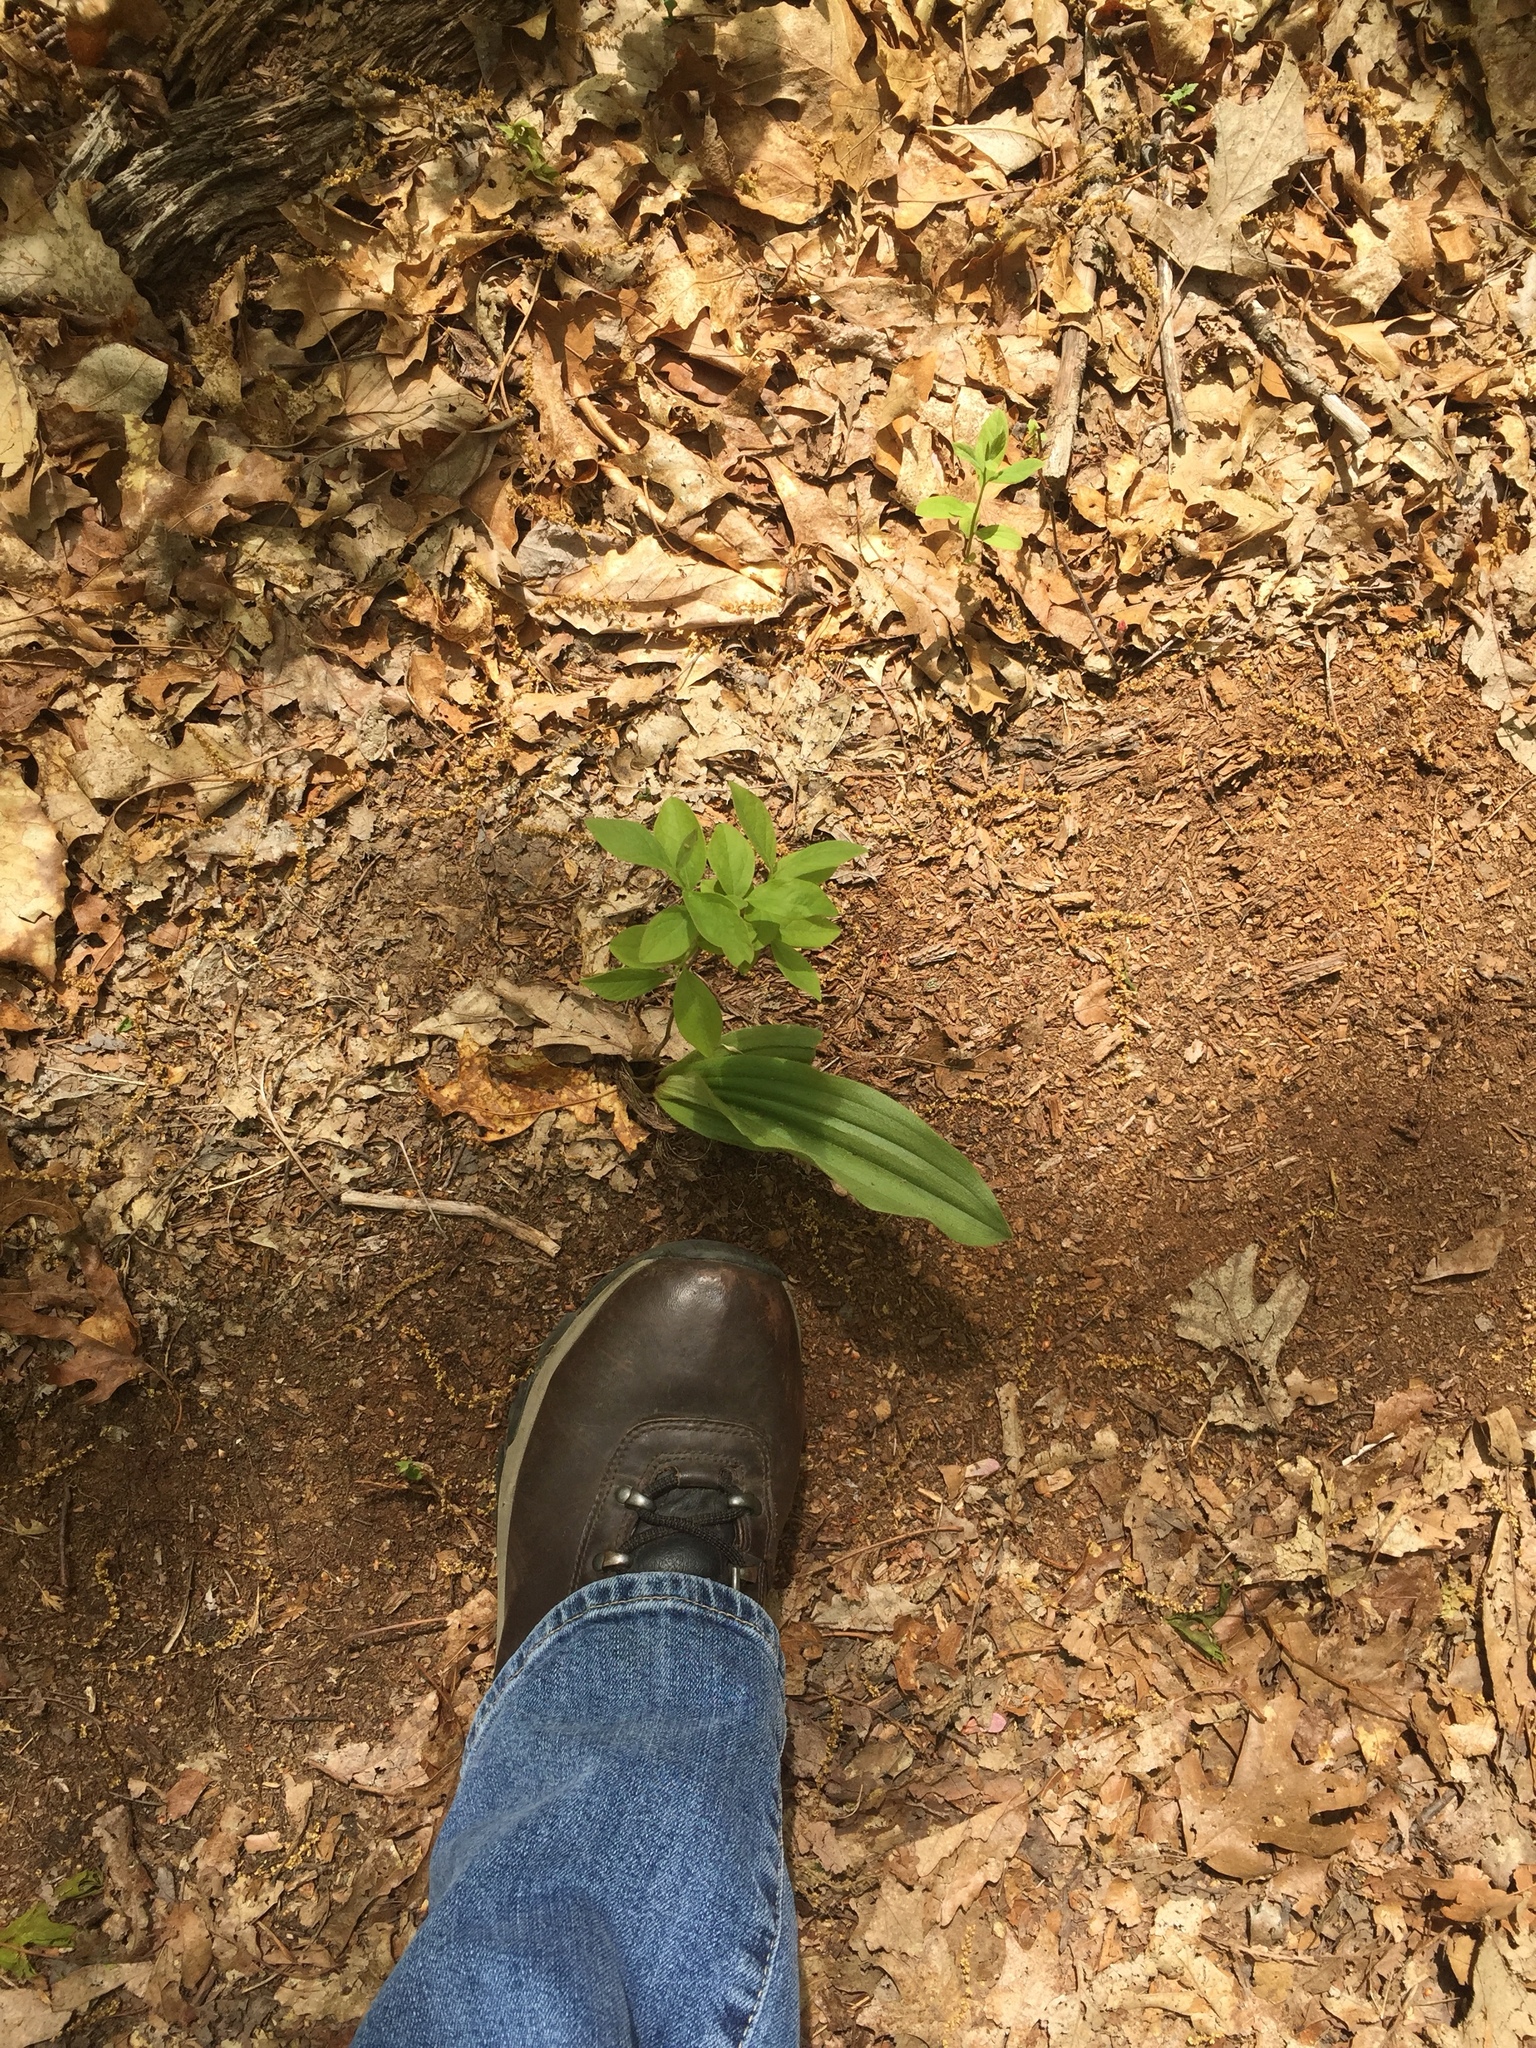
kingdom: Plantae
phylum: Tracheophyta
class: Liliopsida
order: Asparagales
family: Orchidaceae
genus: Cypripedium
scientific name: Cypripedium acaule
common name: Pink lady's-slipper
